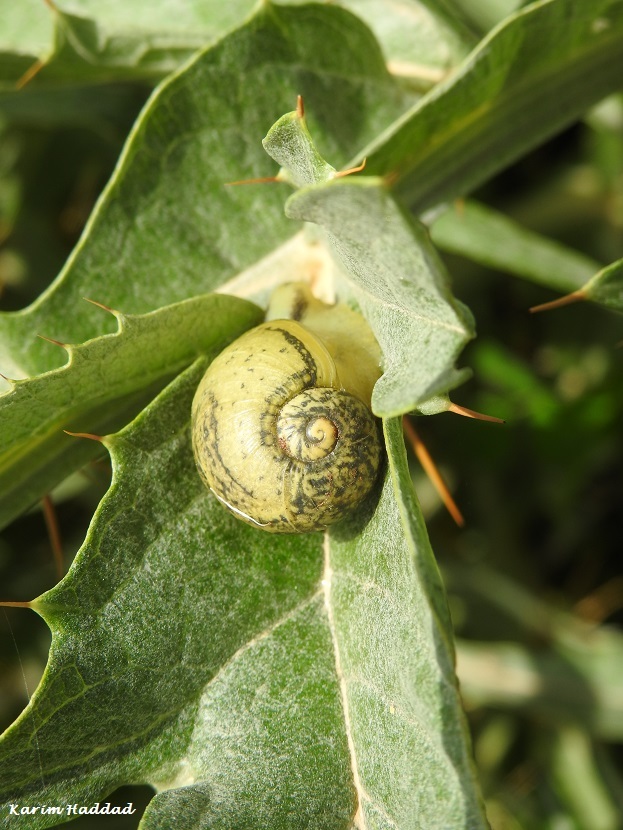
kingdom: Animalia
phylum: Mollusca
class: Gastropoda
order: Stylommatophora
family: Helicidae
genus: Cantareus
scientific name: Cantareus apertus
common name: Green gardensnail
